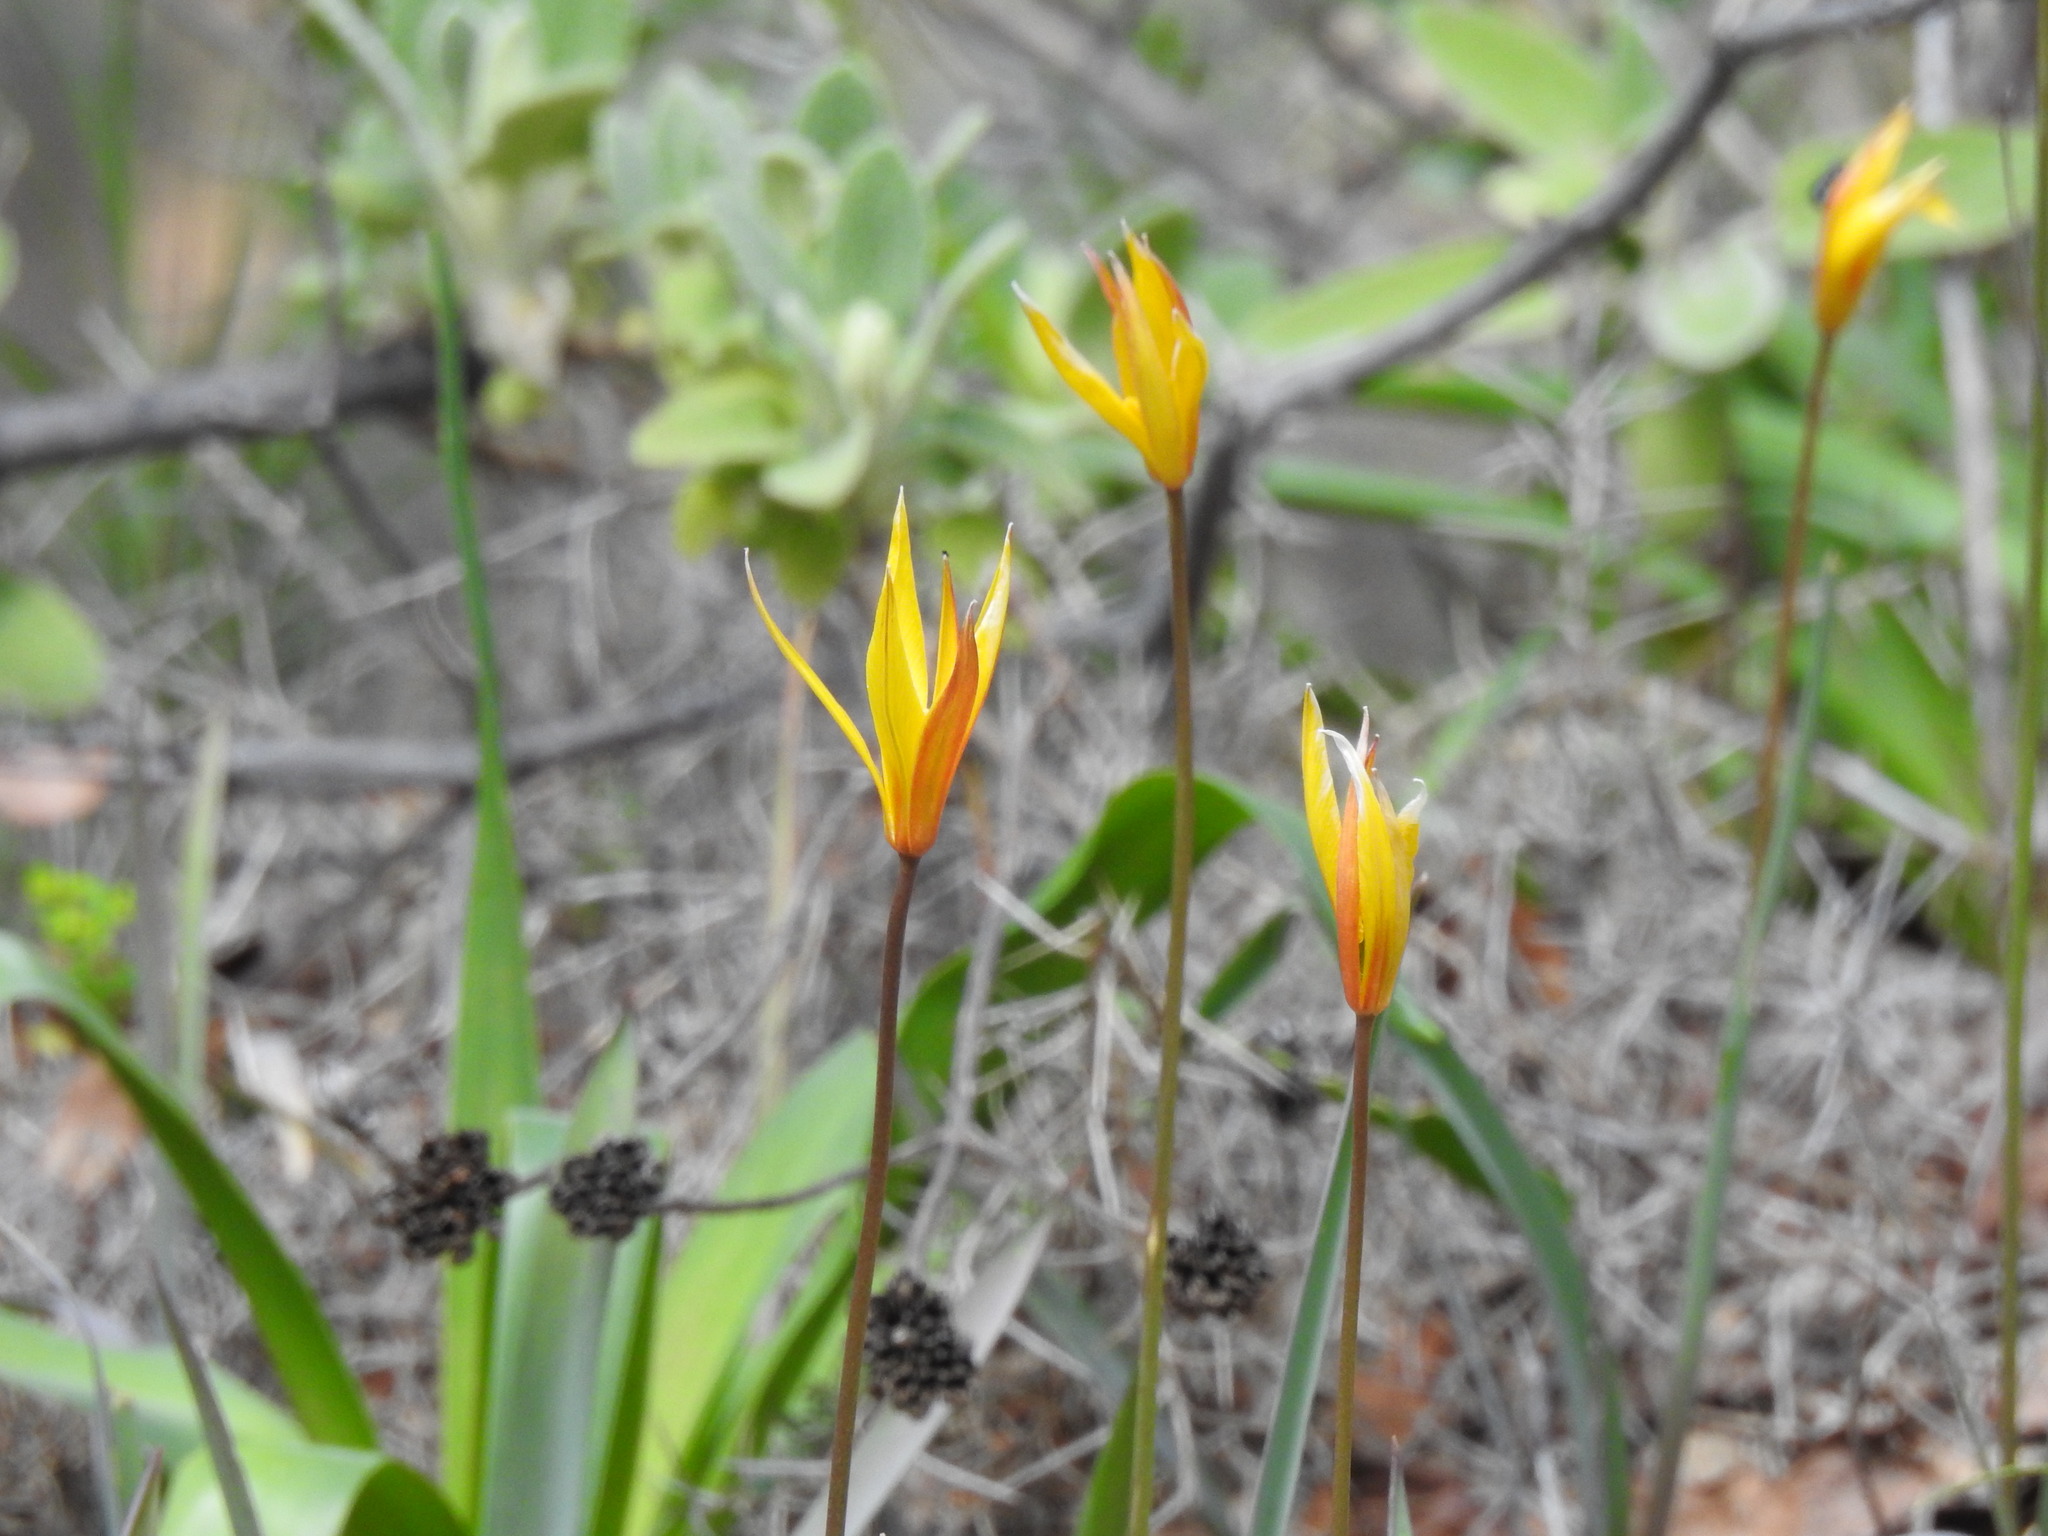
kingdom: Plantae
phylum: Tracheophyta
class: Liliopsida
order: Liliales
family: Liliaceae
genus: Tulipa
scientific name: Tulipa sylvestris
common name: Wild tulip
